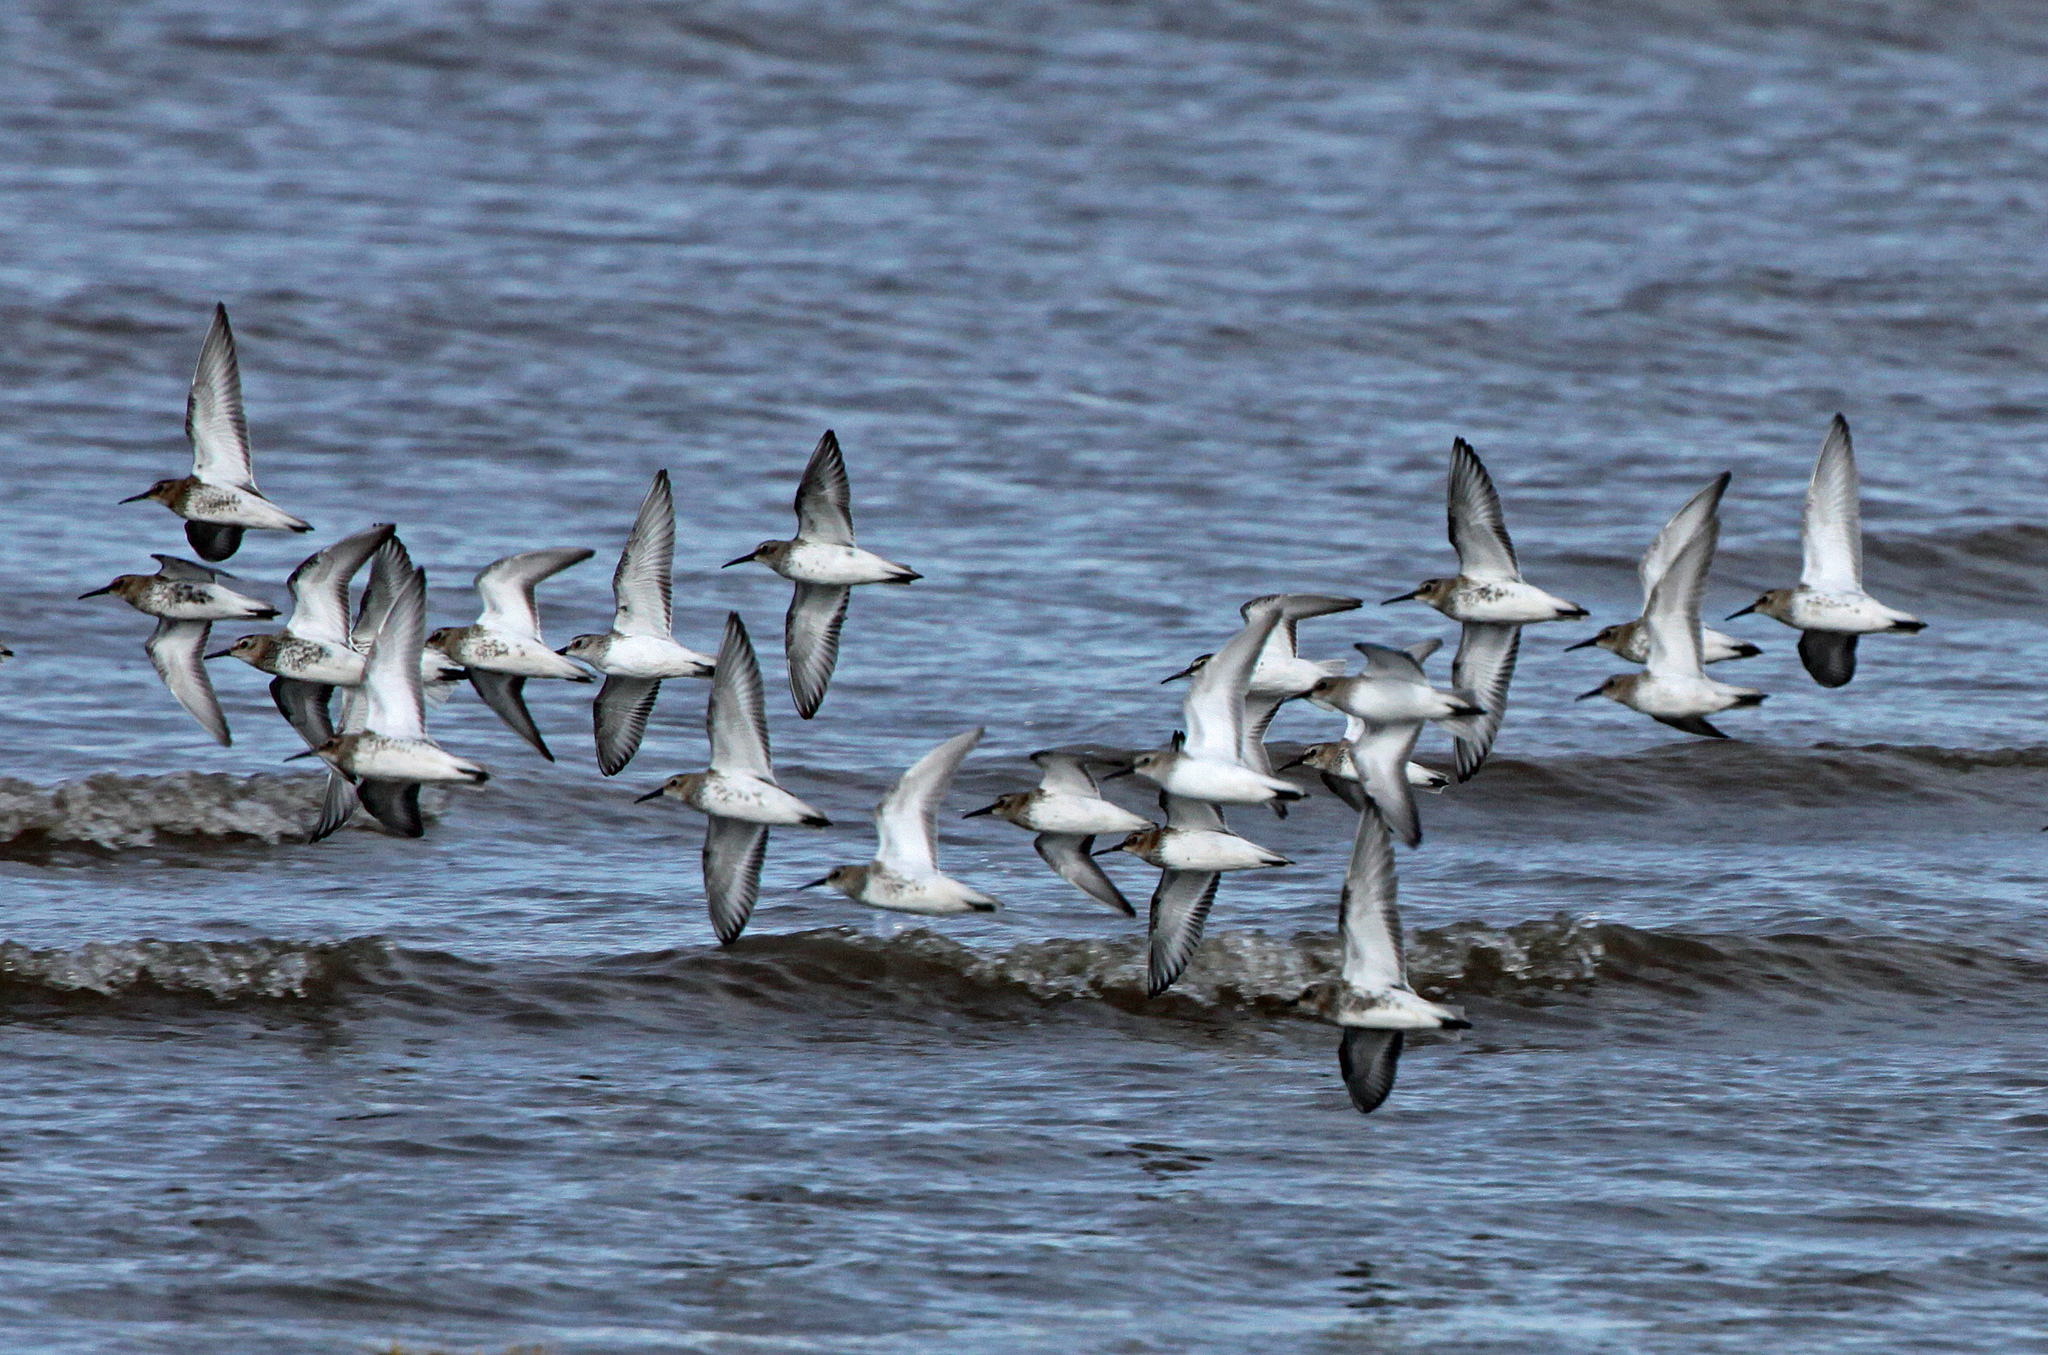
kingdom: Animalia
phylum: Chordata
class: Aves
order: Charadriiformes
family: Scolopacidae
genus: Calidris
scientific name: Calidris alpina
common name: Dunlin
